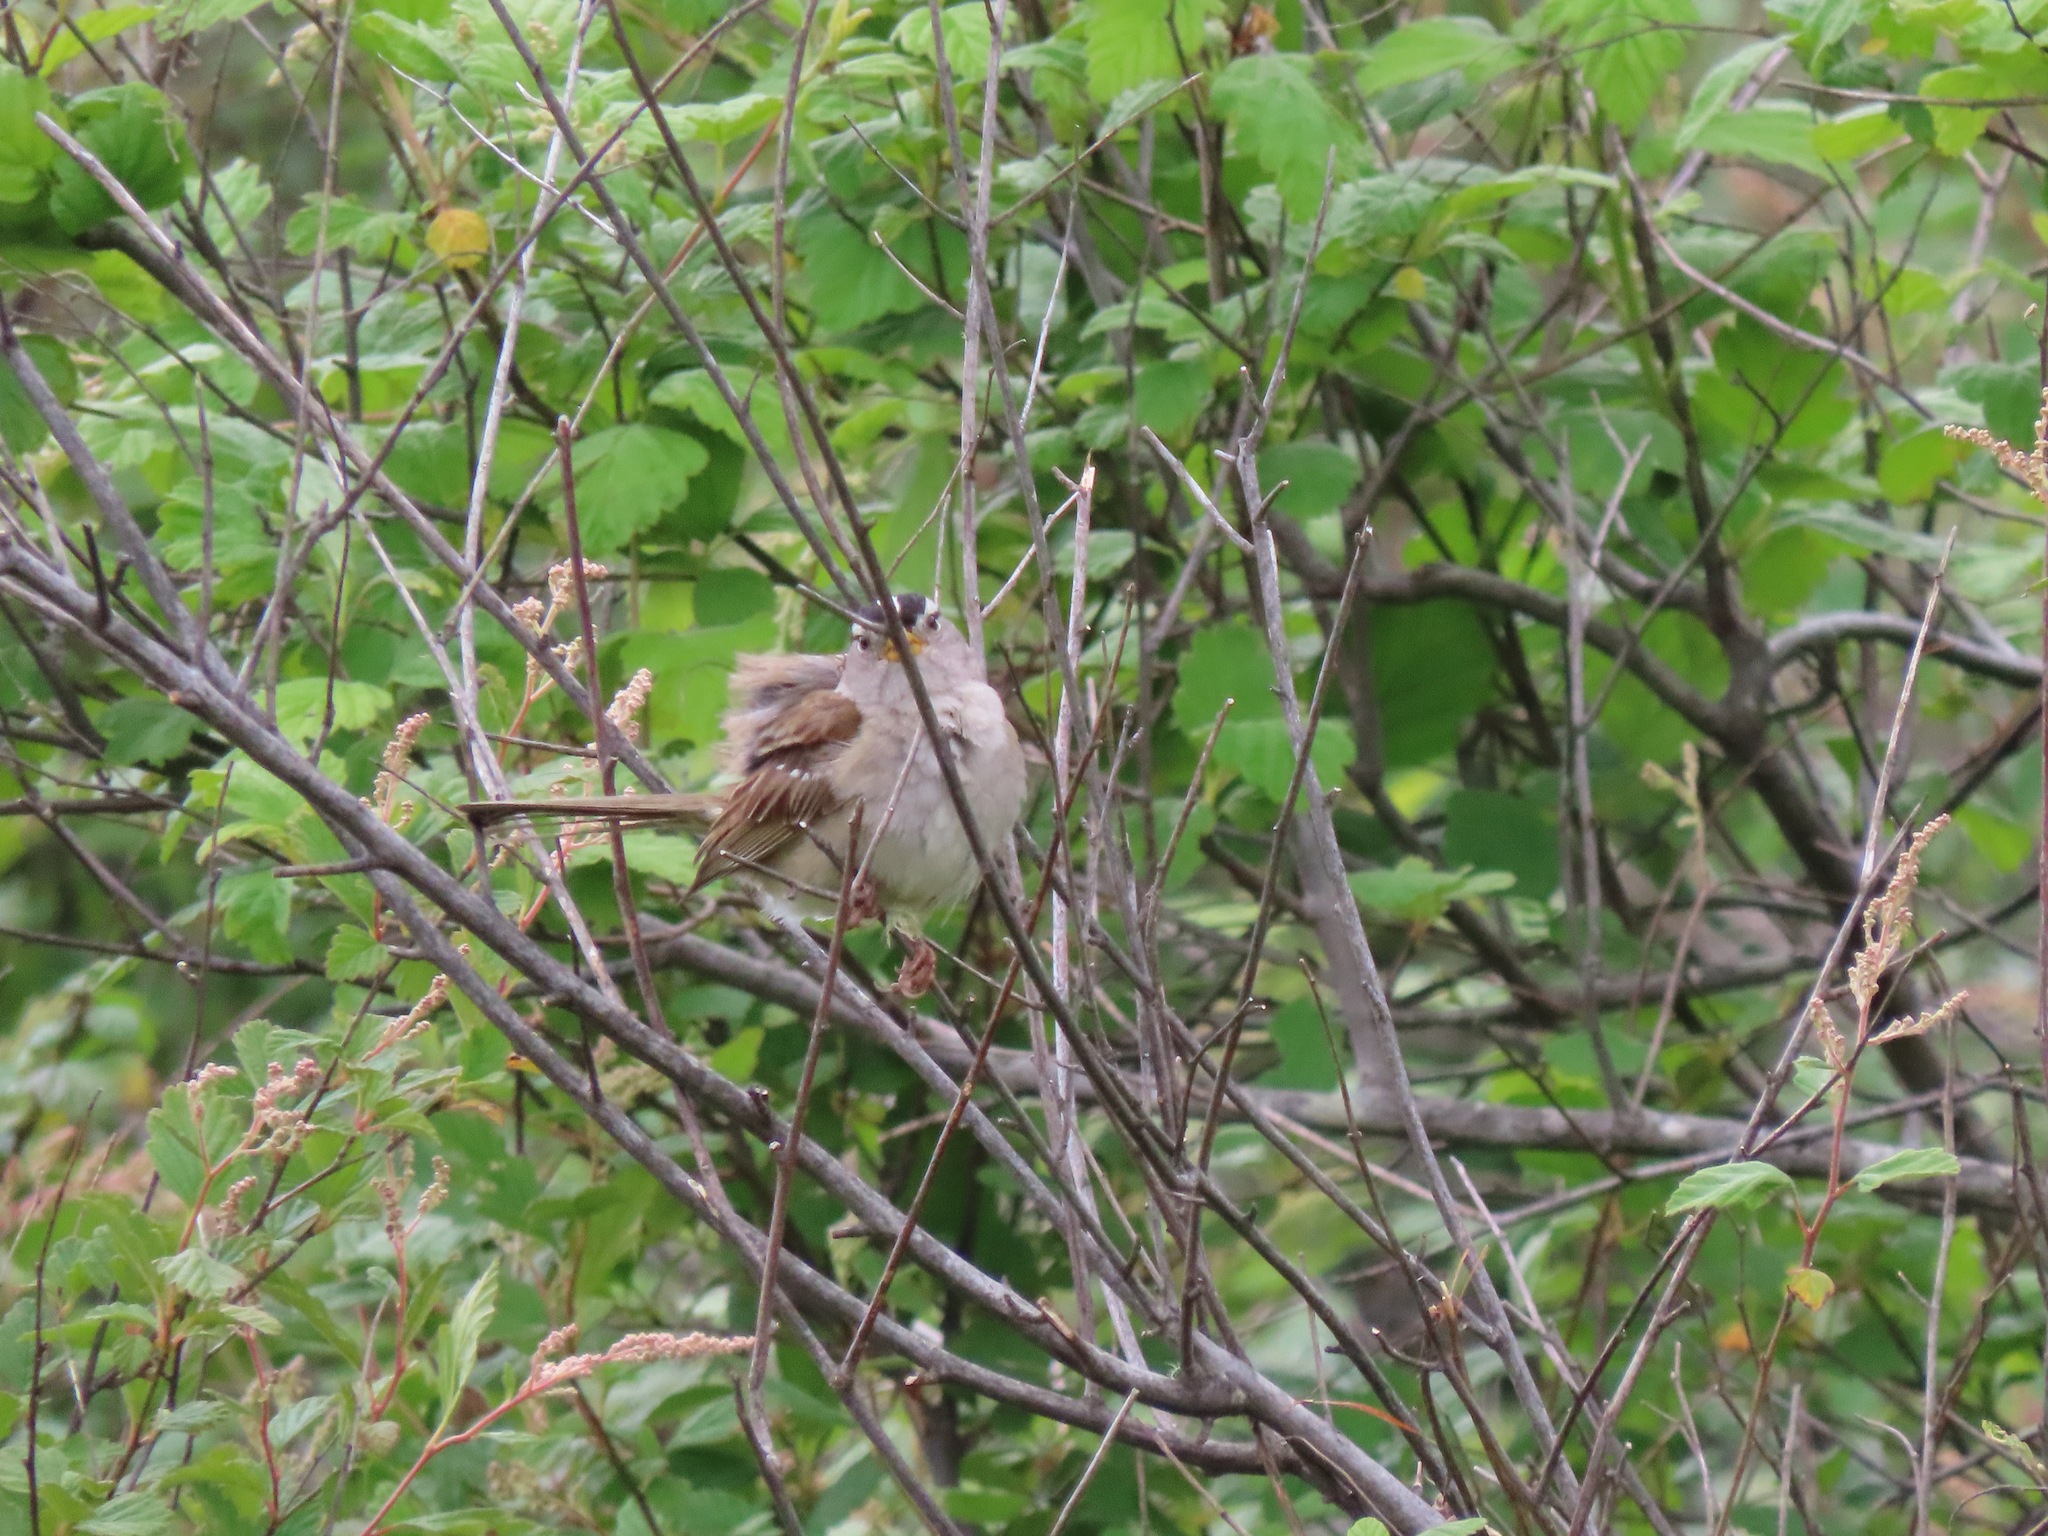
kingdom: Animalia
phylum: Chordata
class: Aves
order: Passeriformes
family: Passerellidae
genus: Zonotrichia
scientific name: Zonotrichia leucophrys
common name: White-crowned sparrow
